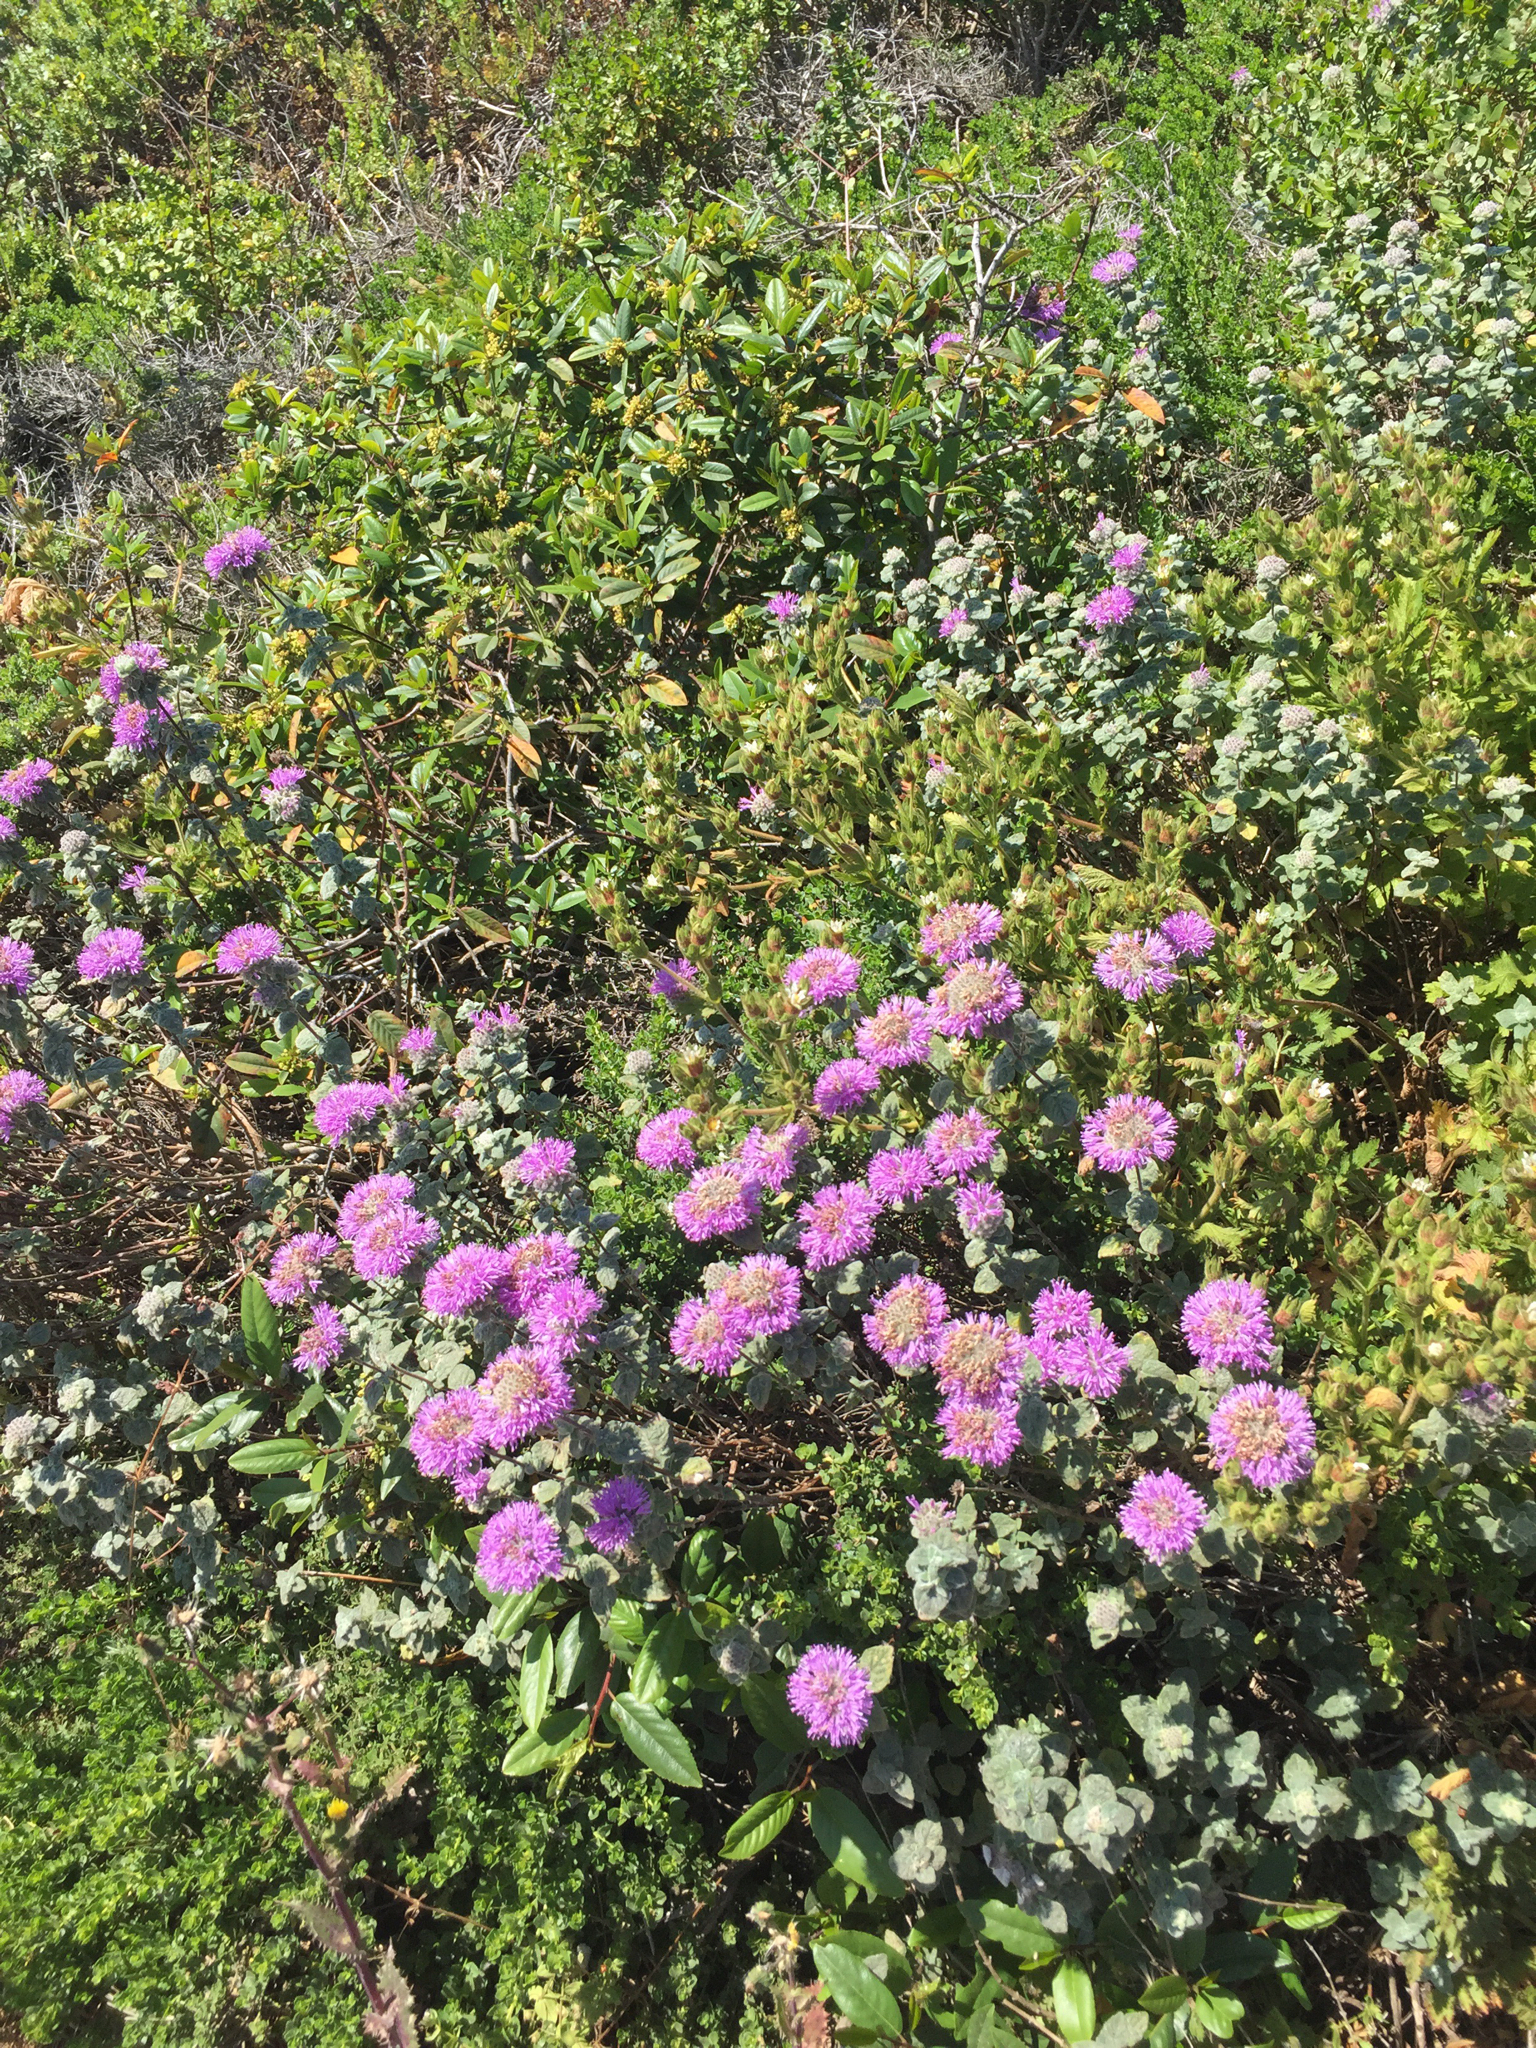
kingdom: Plantae
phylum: Tracheophyta
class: Magnoliopsida
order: Lamiales
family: Lamiaceae
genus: Monardella
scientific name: Monardella odoratissima
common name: Pacific monardella
